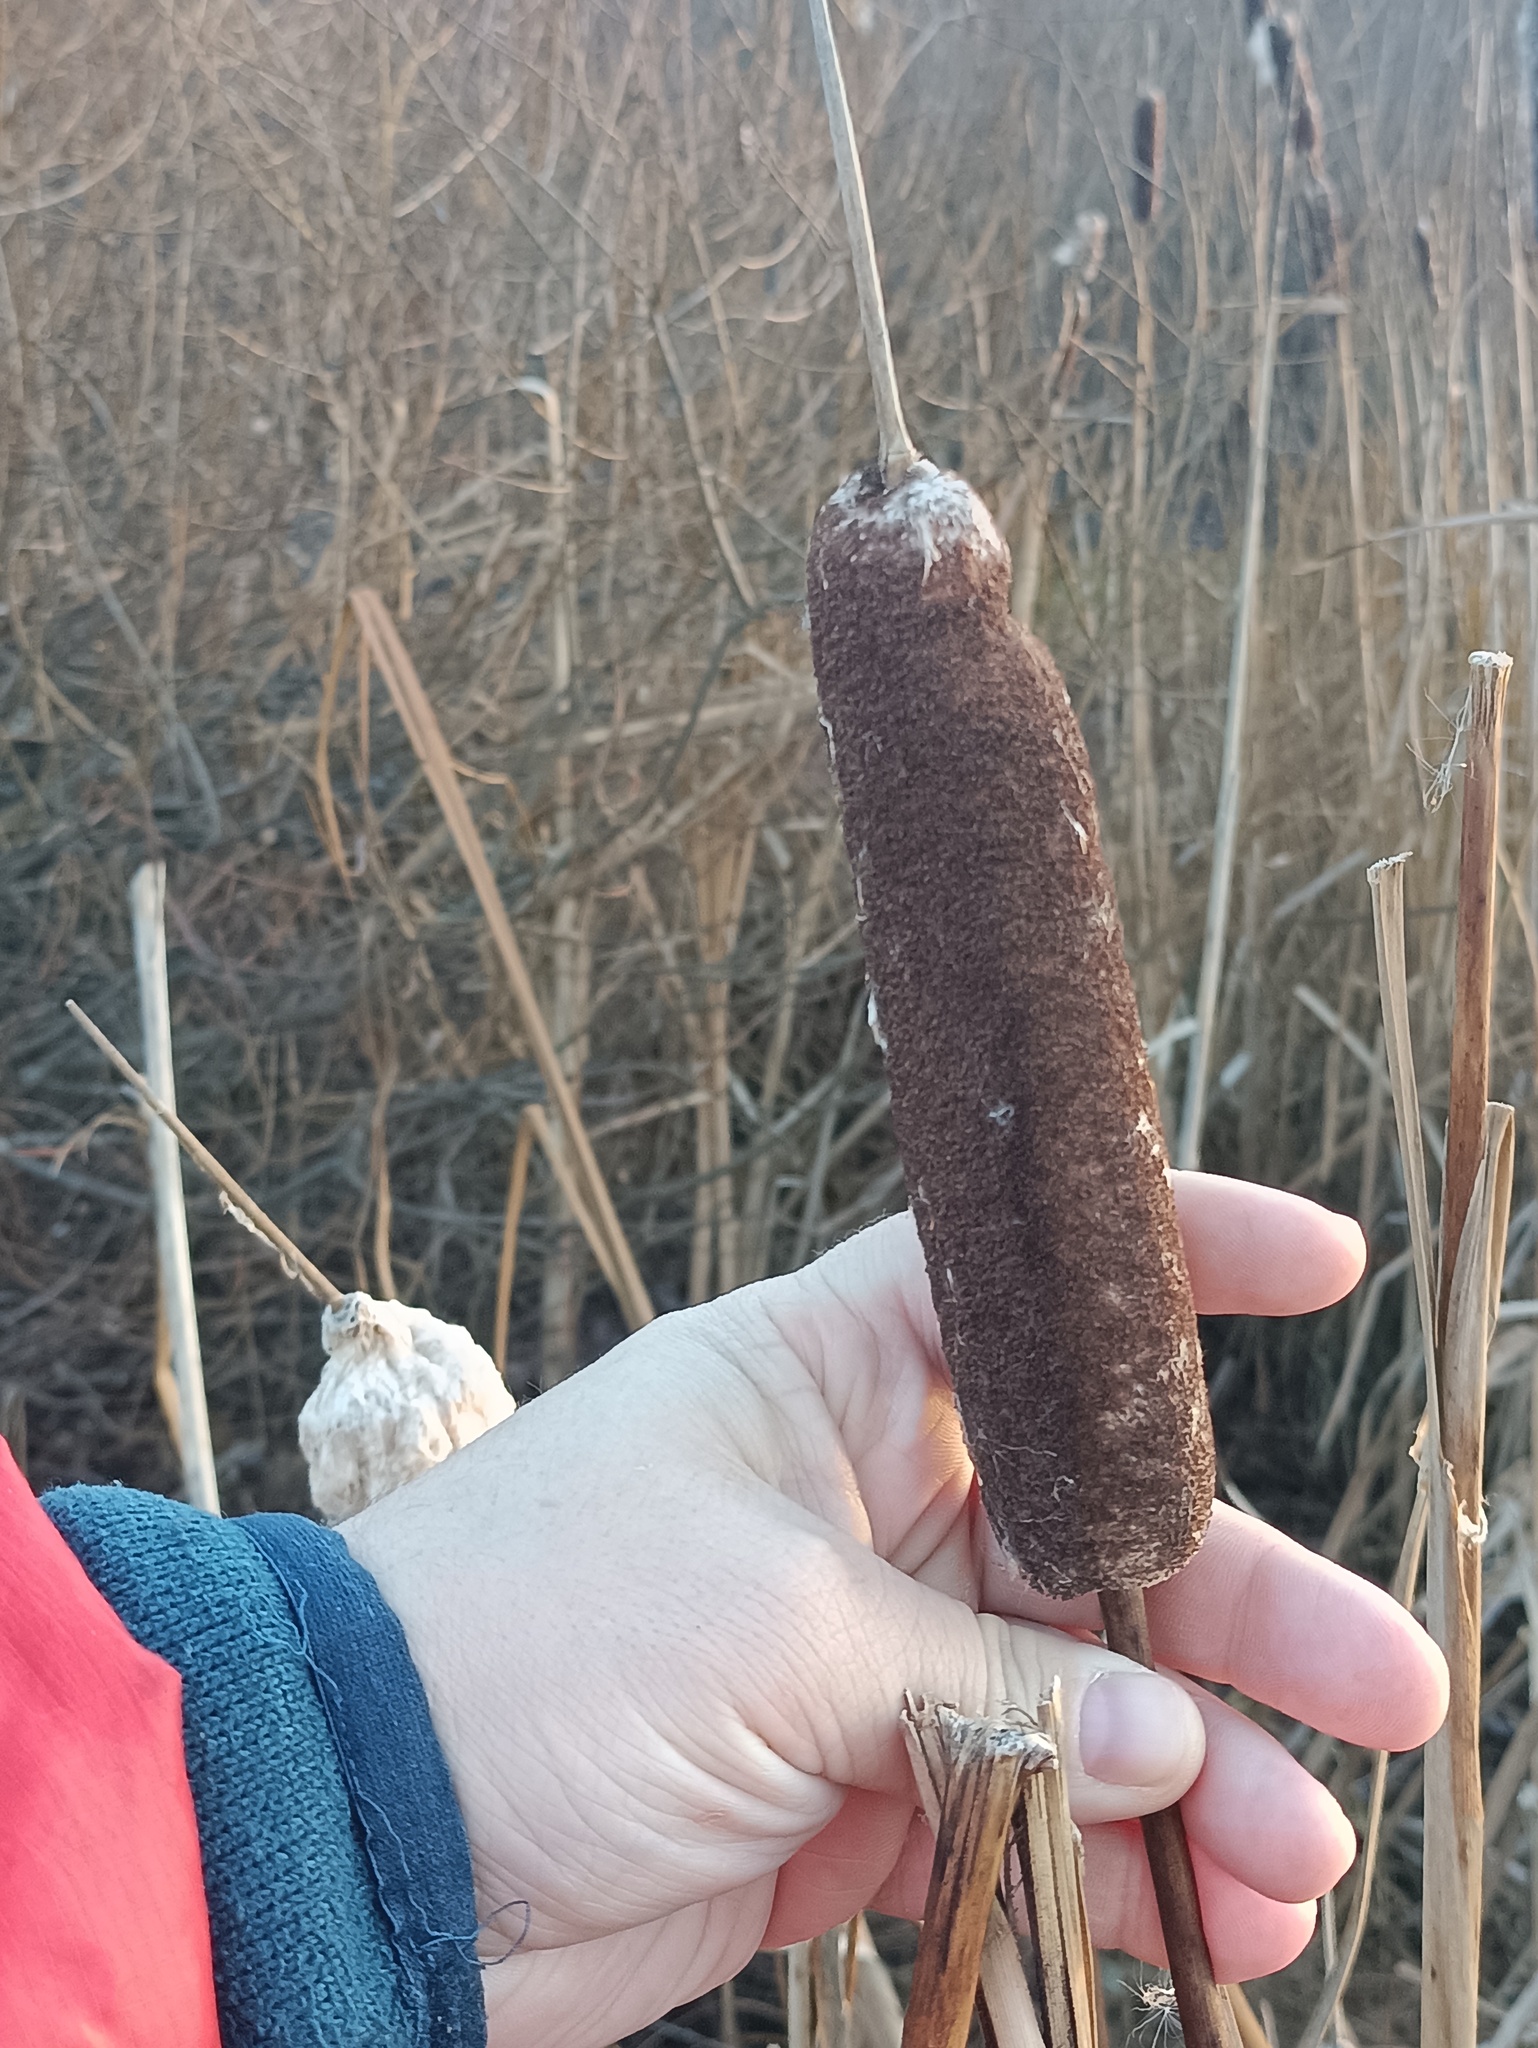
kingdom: Plantae
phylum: Tracheophyta
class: Liliopsida
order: Poales
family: Typhaceae
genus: Typha
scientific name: Typha latifolia
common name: Broadleaf cattail
